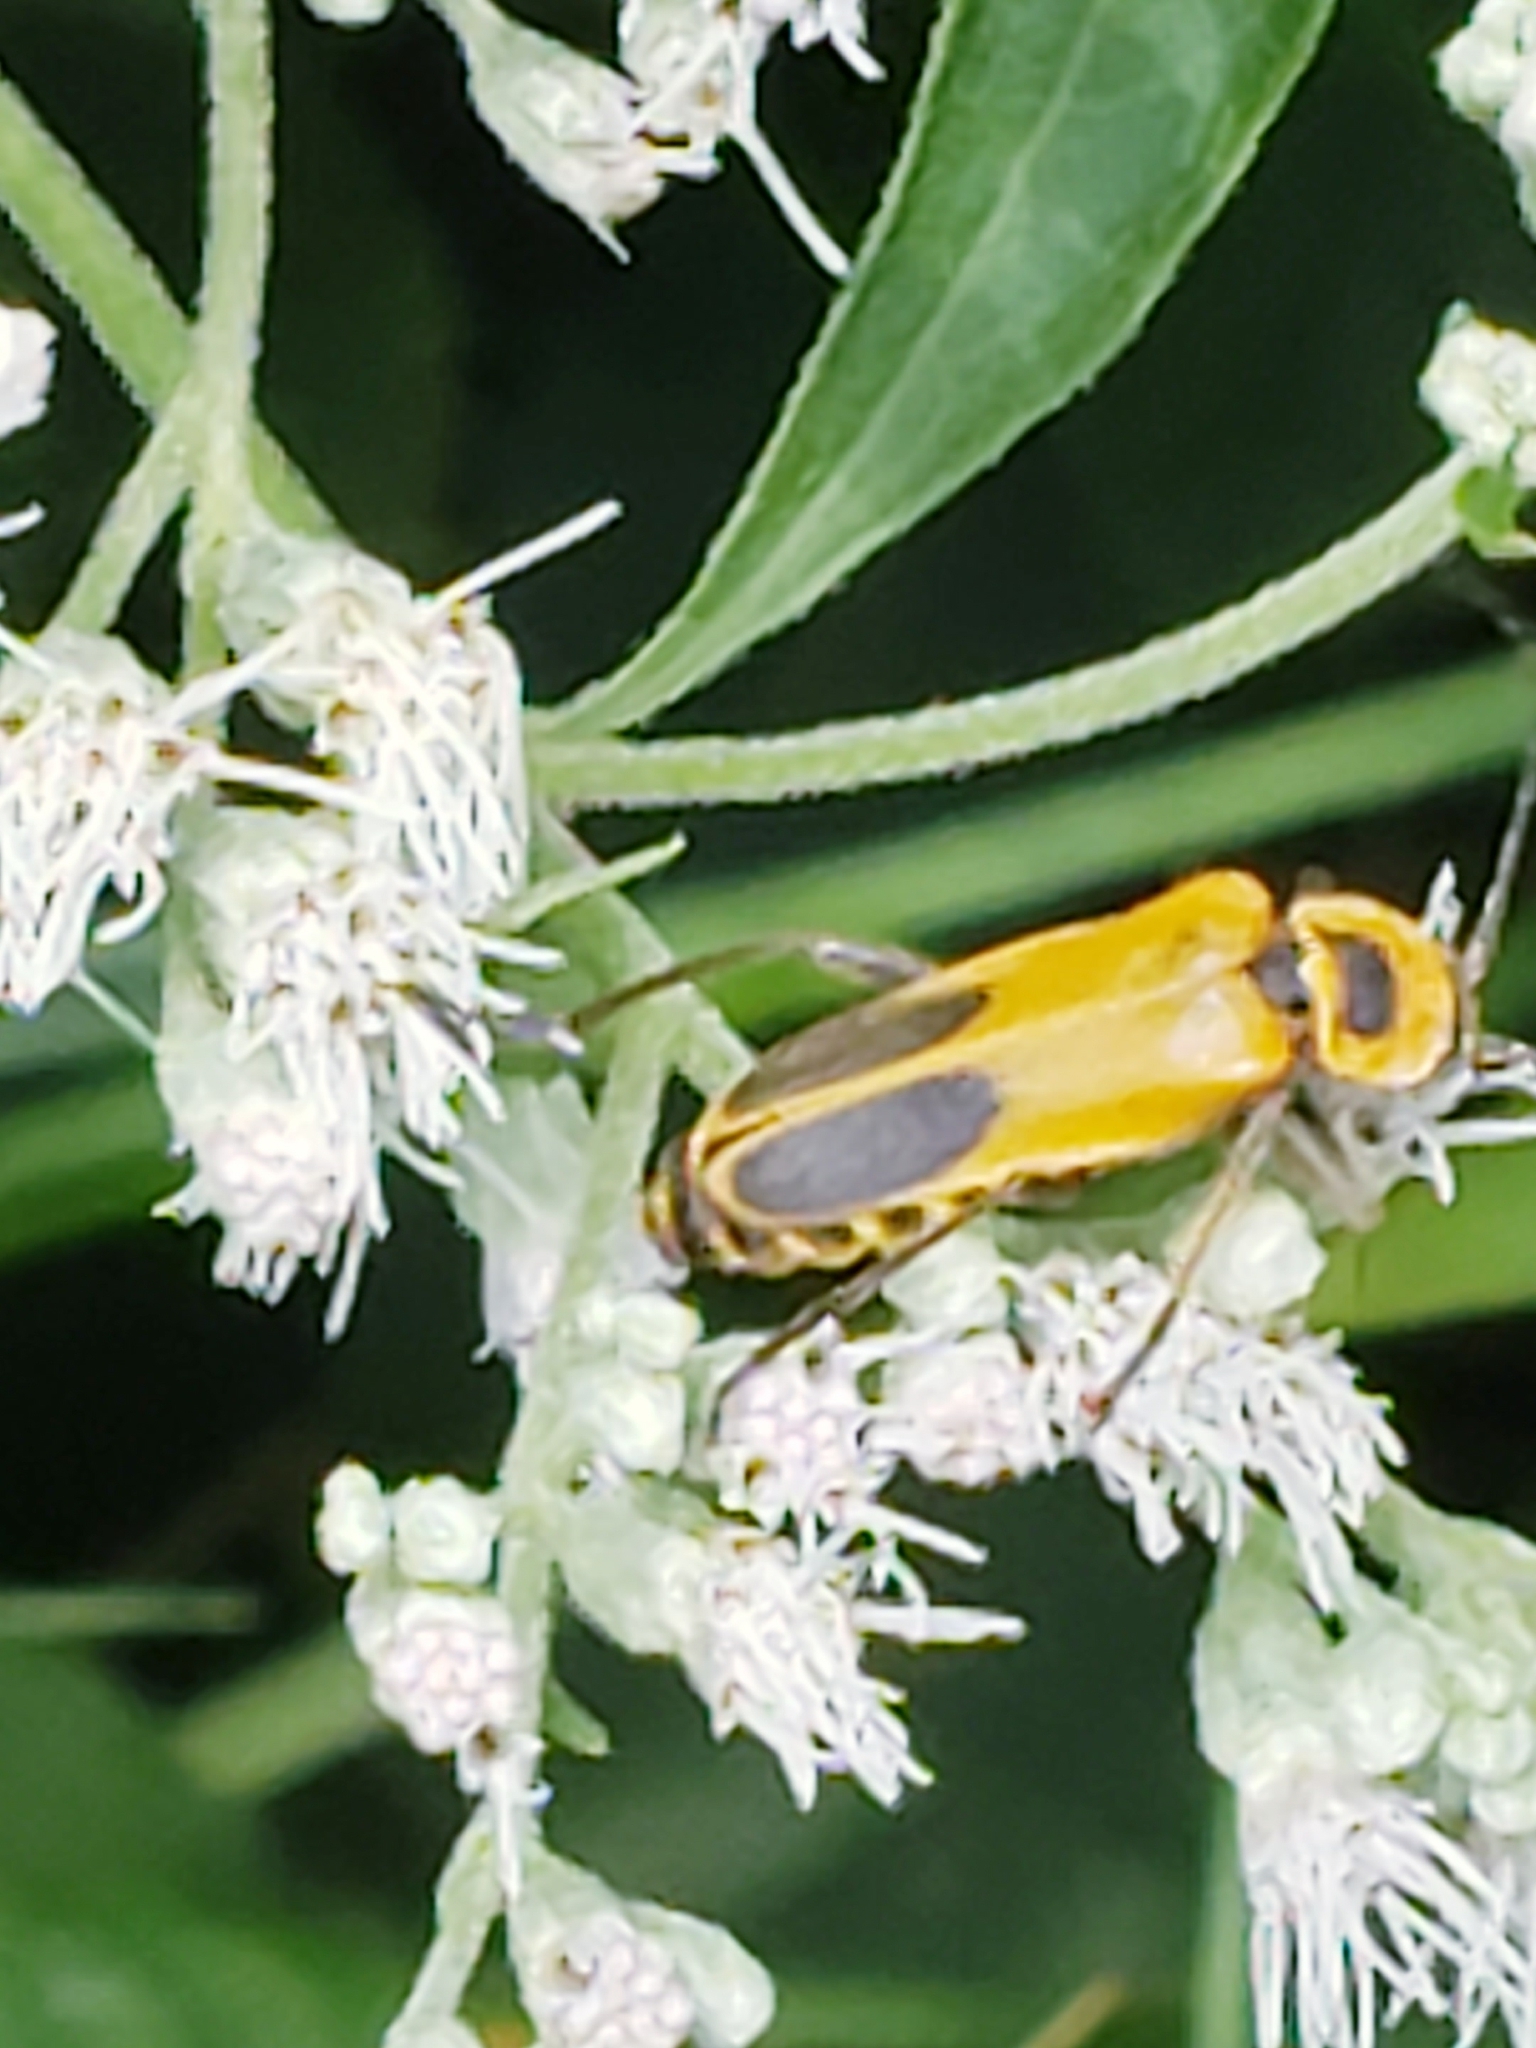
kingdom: Animalia
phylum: Arthropoda
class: Insecta
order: Coleoptera
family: Cantharidae
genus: Chauliognathus
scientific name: Chauliognathus pensylvanicus
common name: Goldenrod soldier beetle
